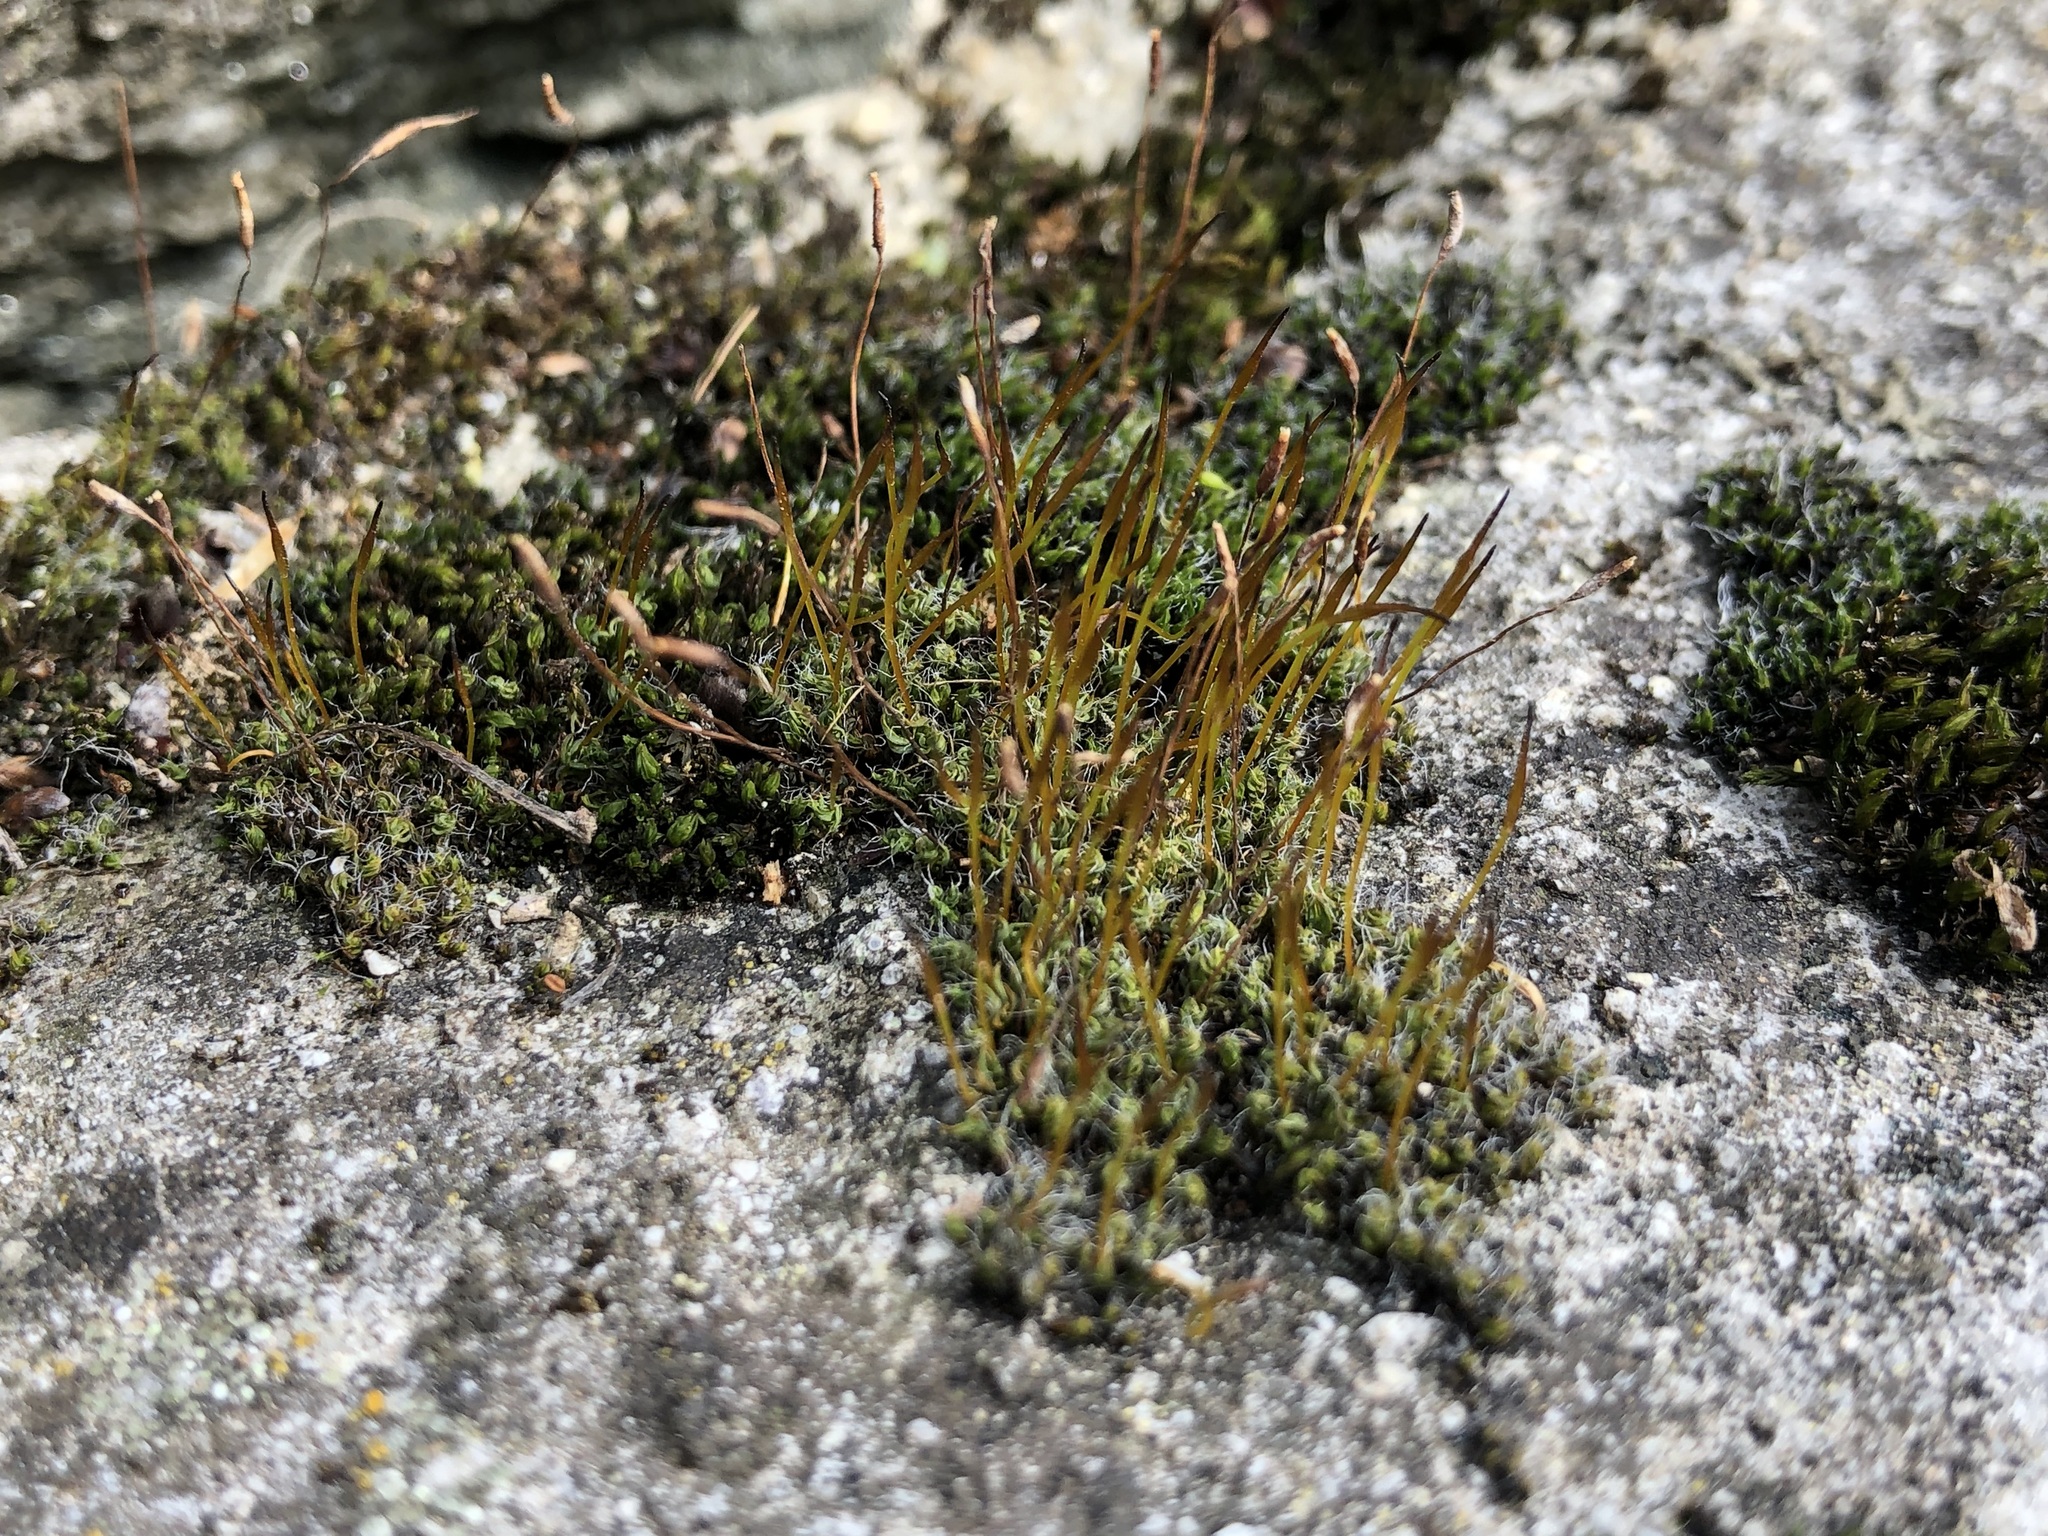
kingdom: Plantae
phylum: Bryophyta
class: Bryopsida
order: Pottiales
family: Pottiaceae
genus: Tortula
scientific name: Tortula muralis
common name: Wall screw-moss
